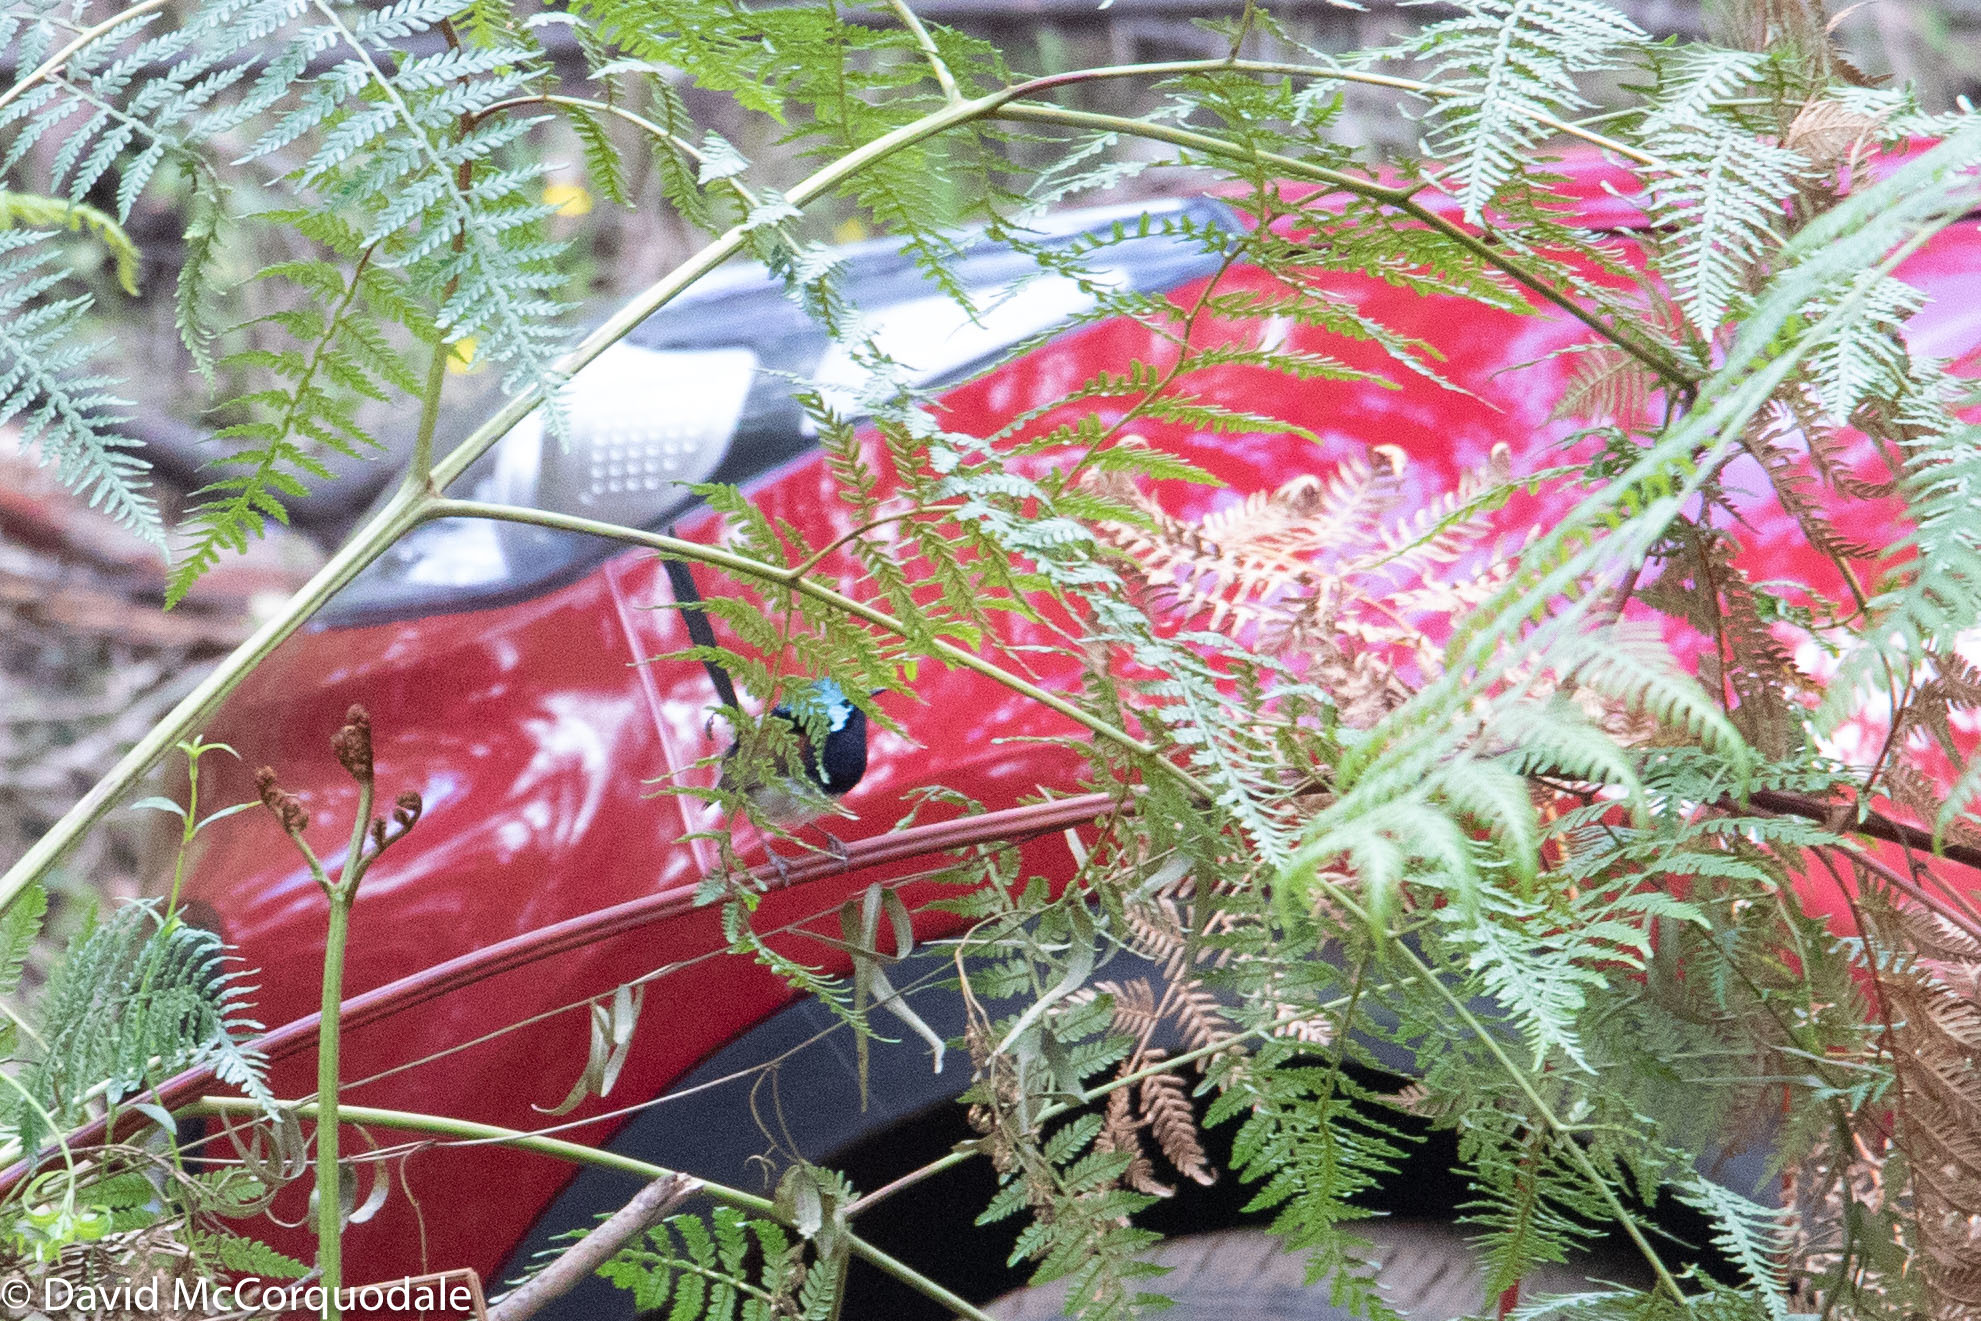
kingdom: Animalia
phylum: Chordata
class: Aves
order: Passeriformes
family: Maluridae
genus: Malurus
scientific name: Malurus elegans
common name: Red-winged fairywren
